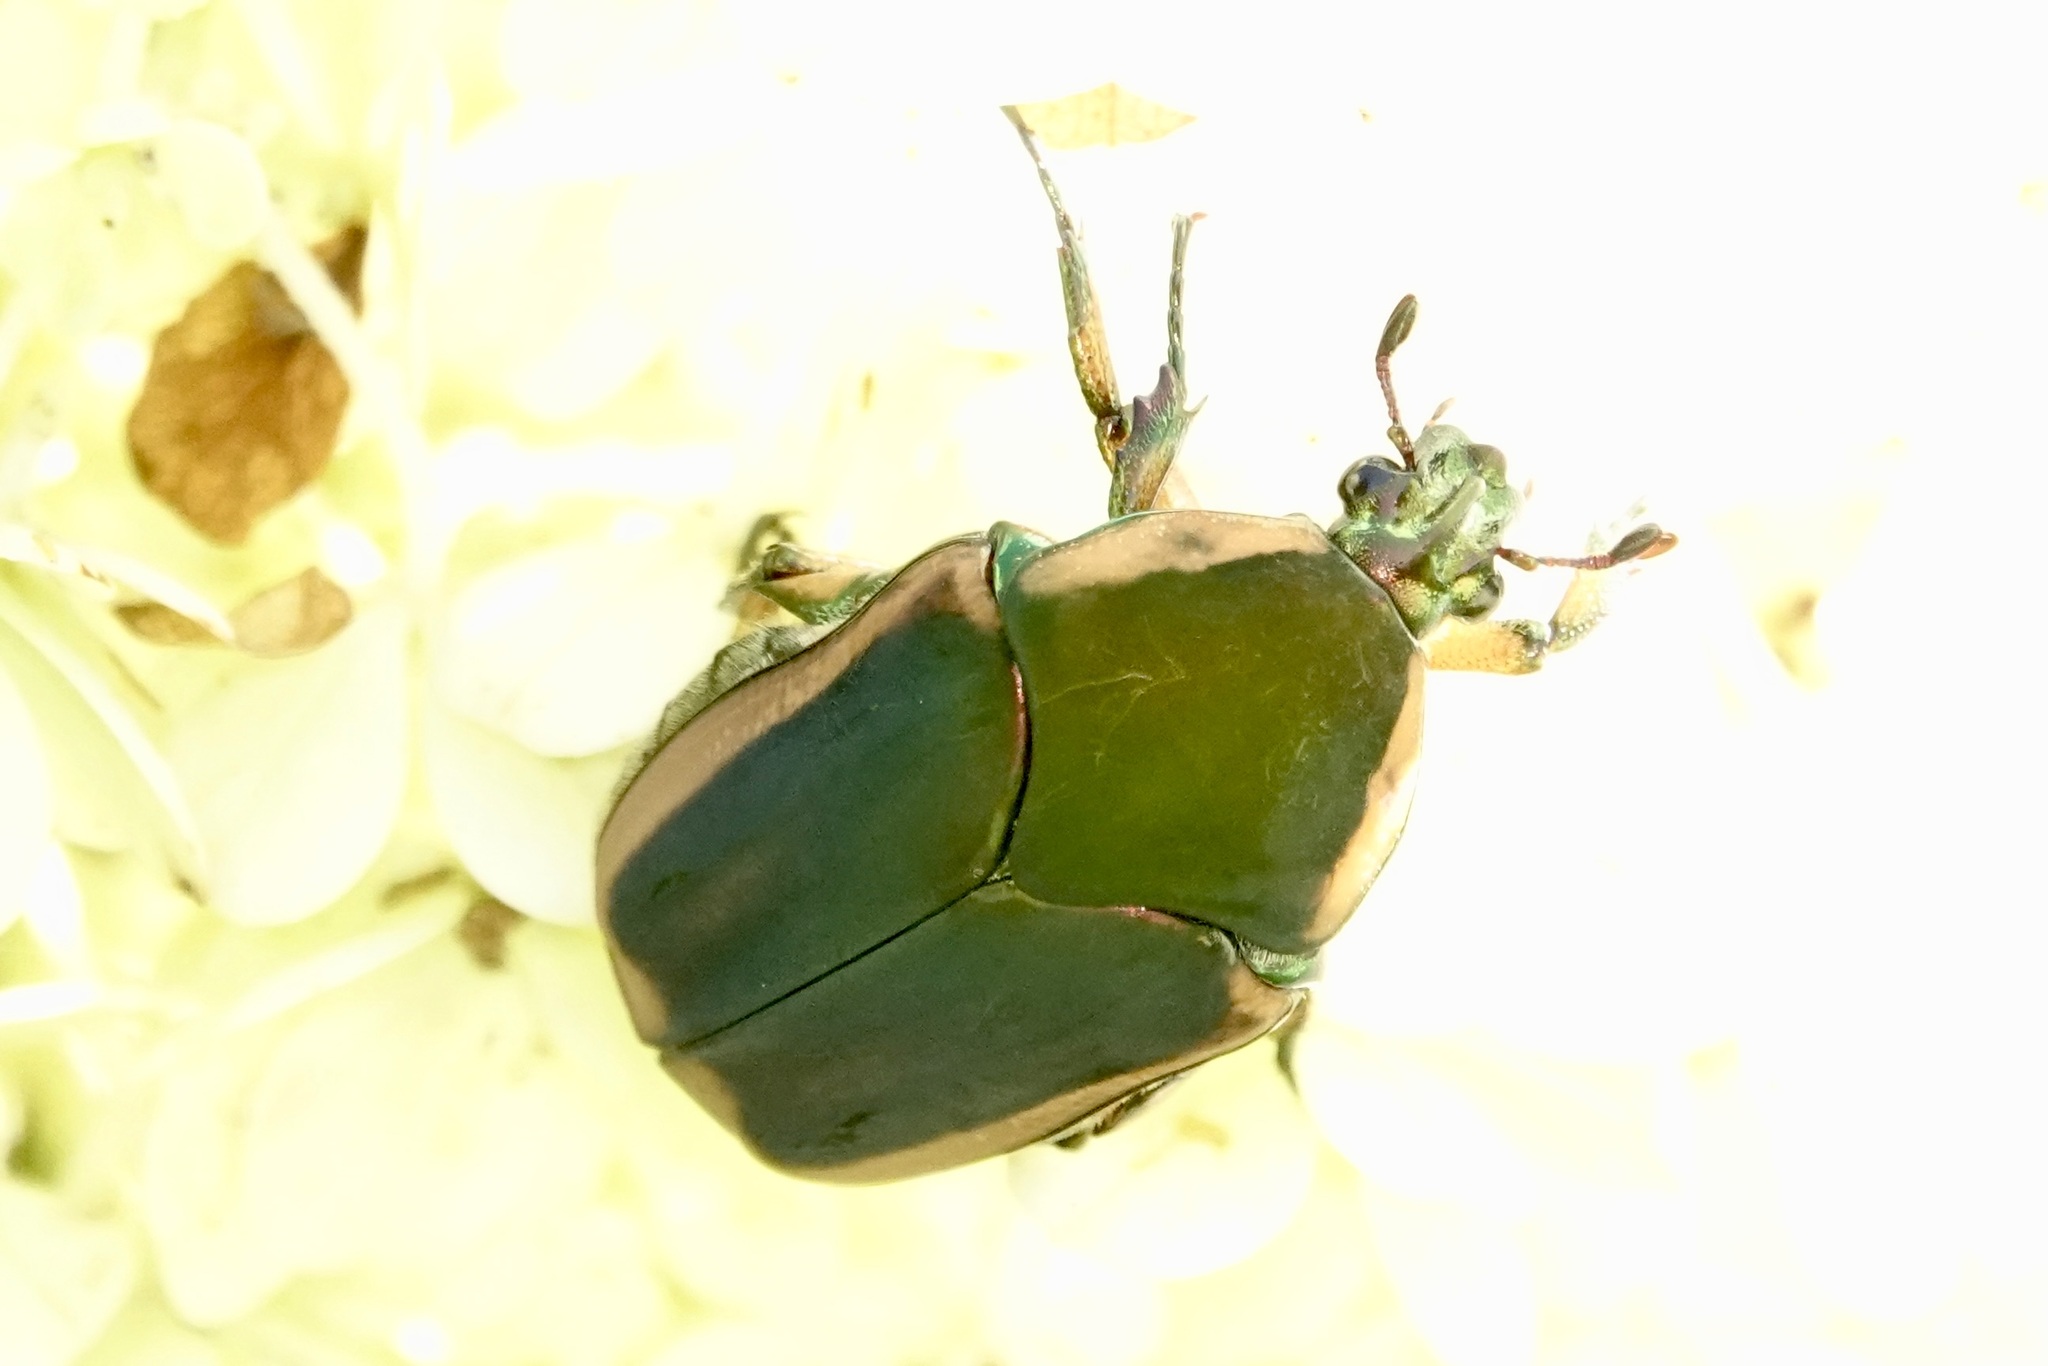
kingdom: Animalia
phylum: Arthropoda
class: Insecta
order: Coleoptera
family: Scarabaeidae
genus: Cotinis
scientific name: Cotinis nitida
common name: Common green june beetle
